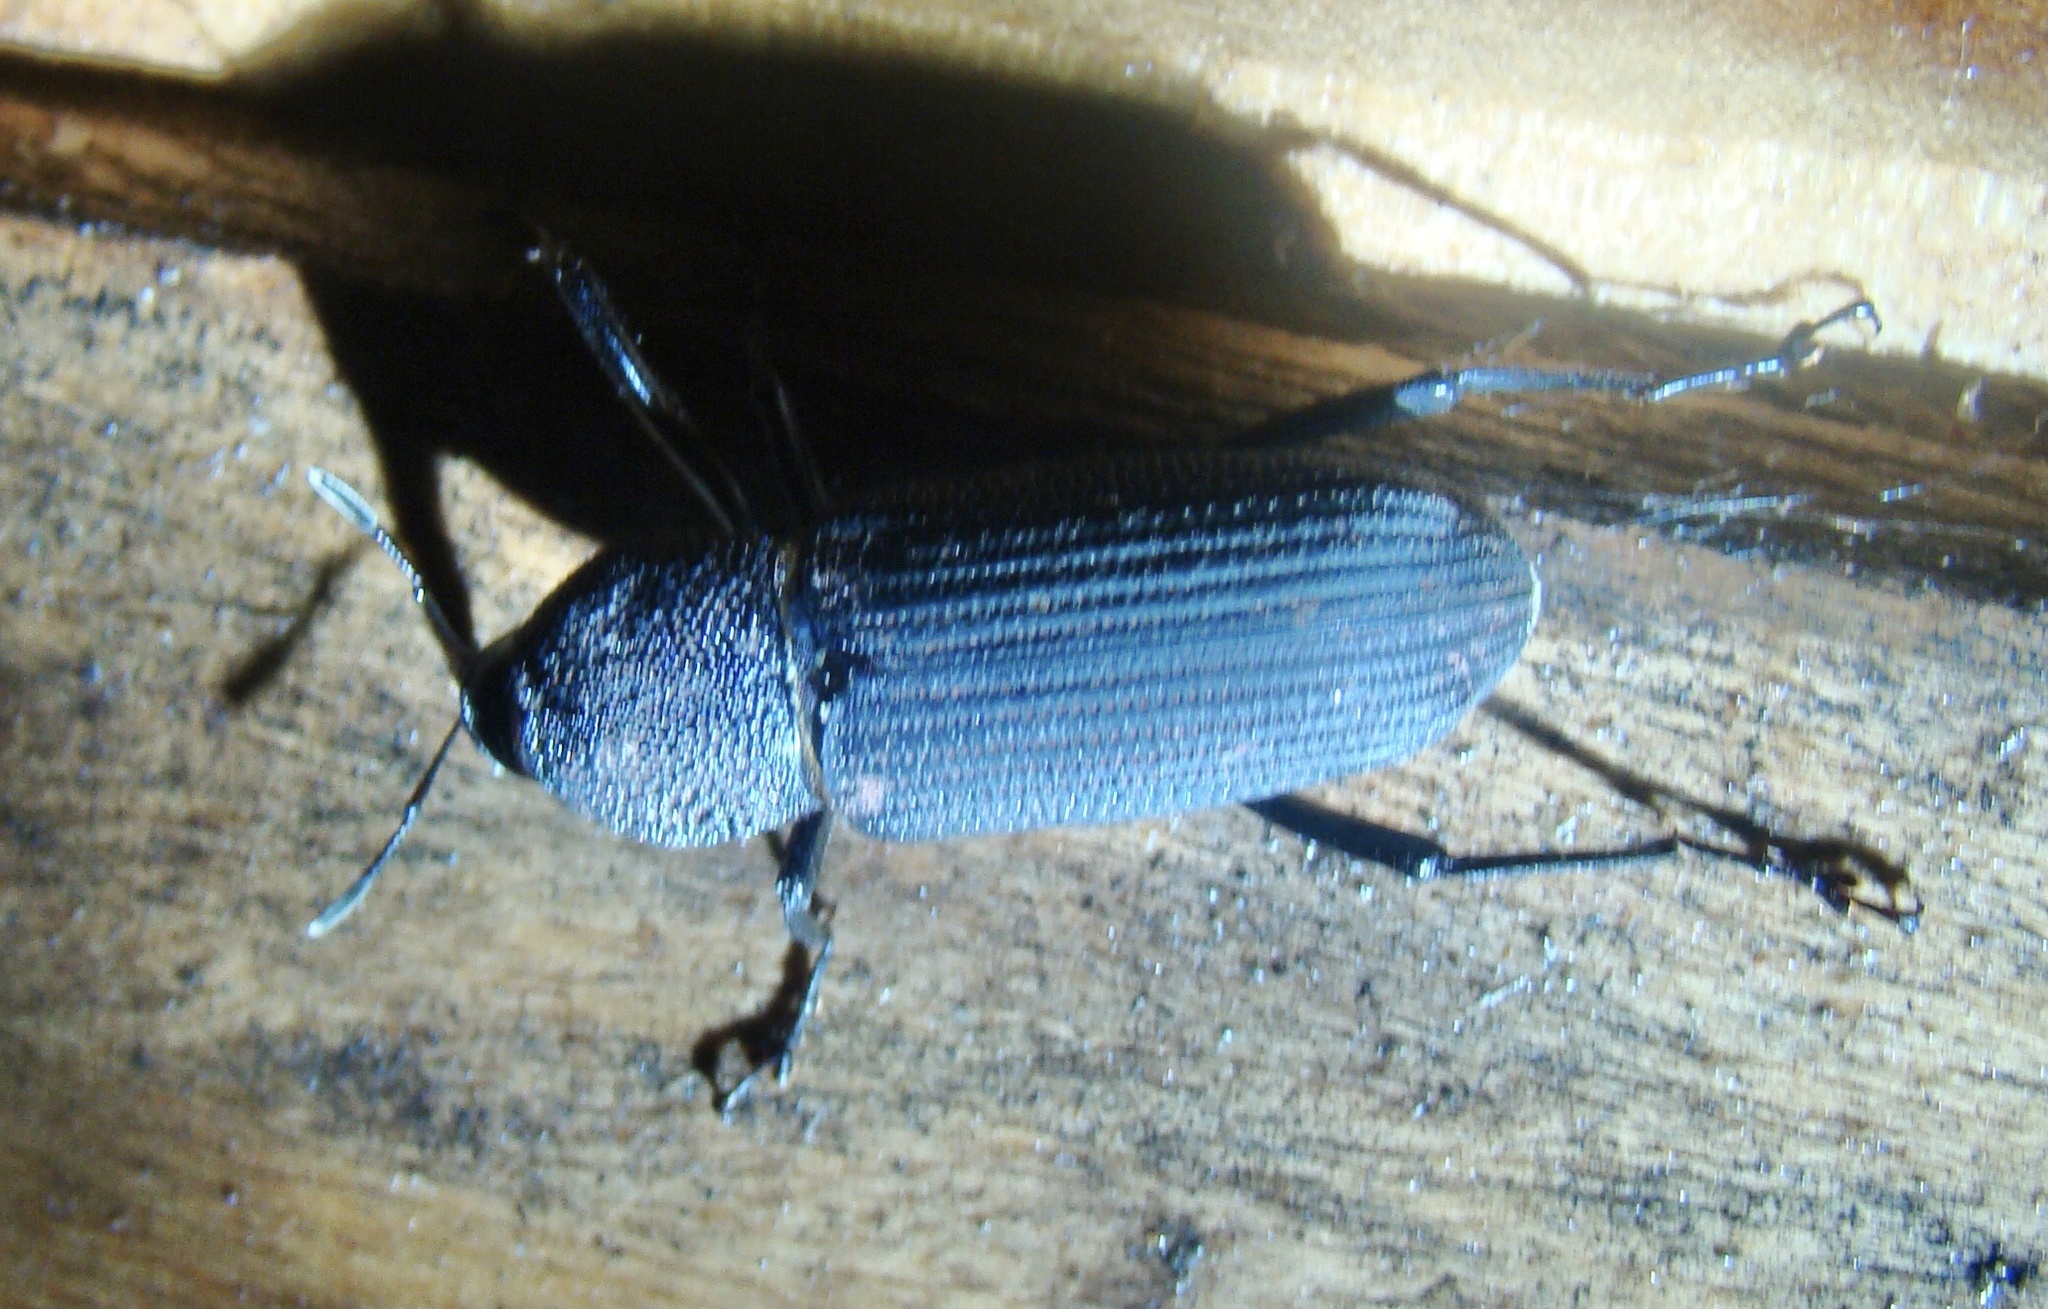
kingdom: Animalia
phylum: Arthropoda
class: Insecta
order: Coleoptera
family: Dryophthoridae
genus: Rhinostomus
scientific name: Rhinostomus barbirostris
